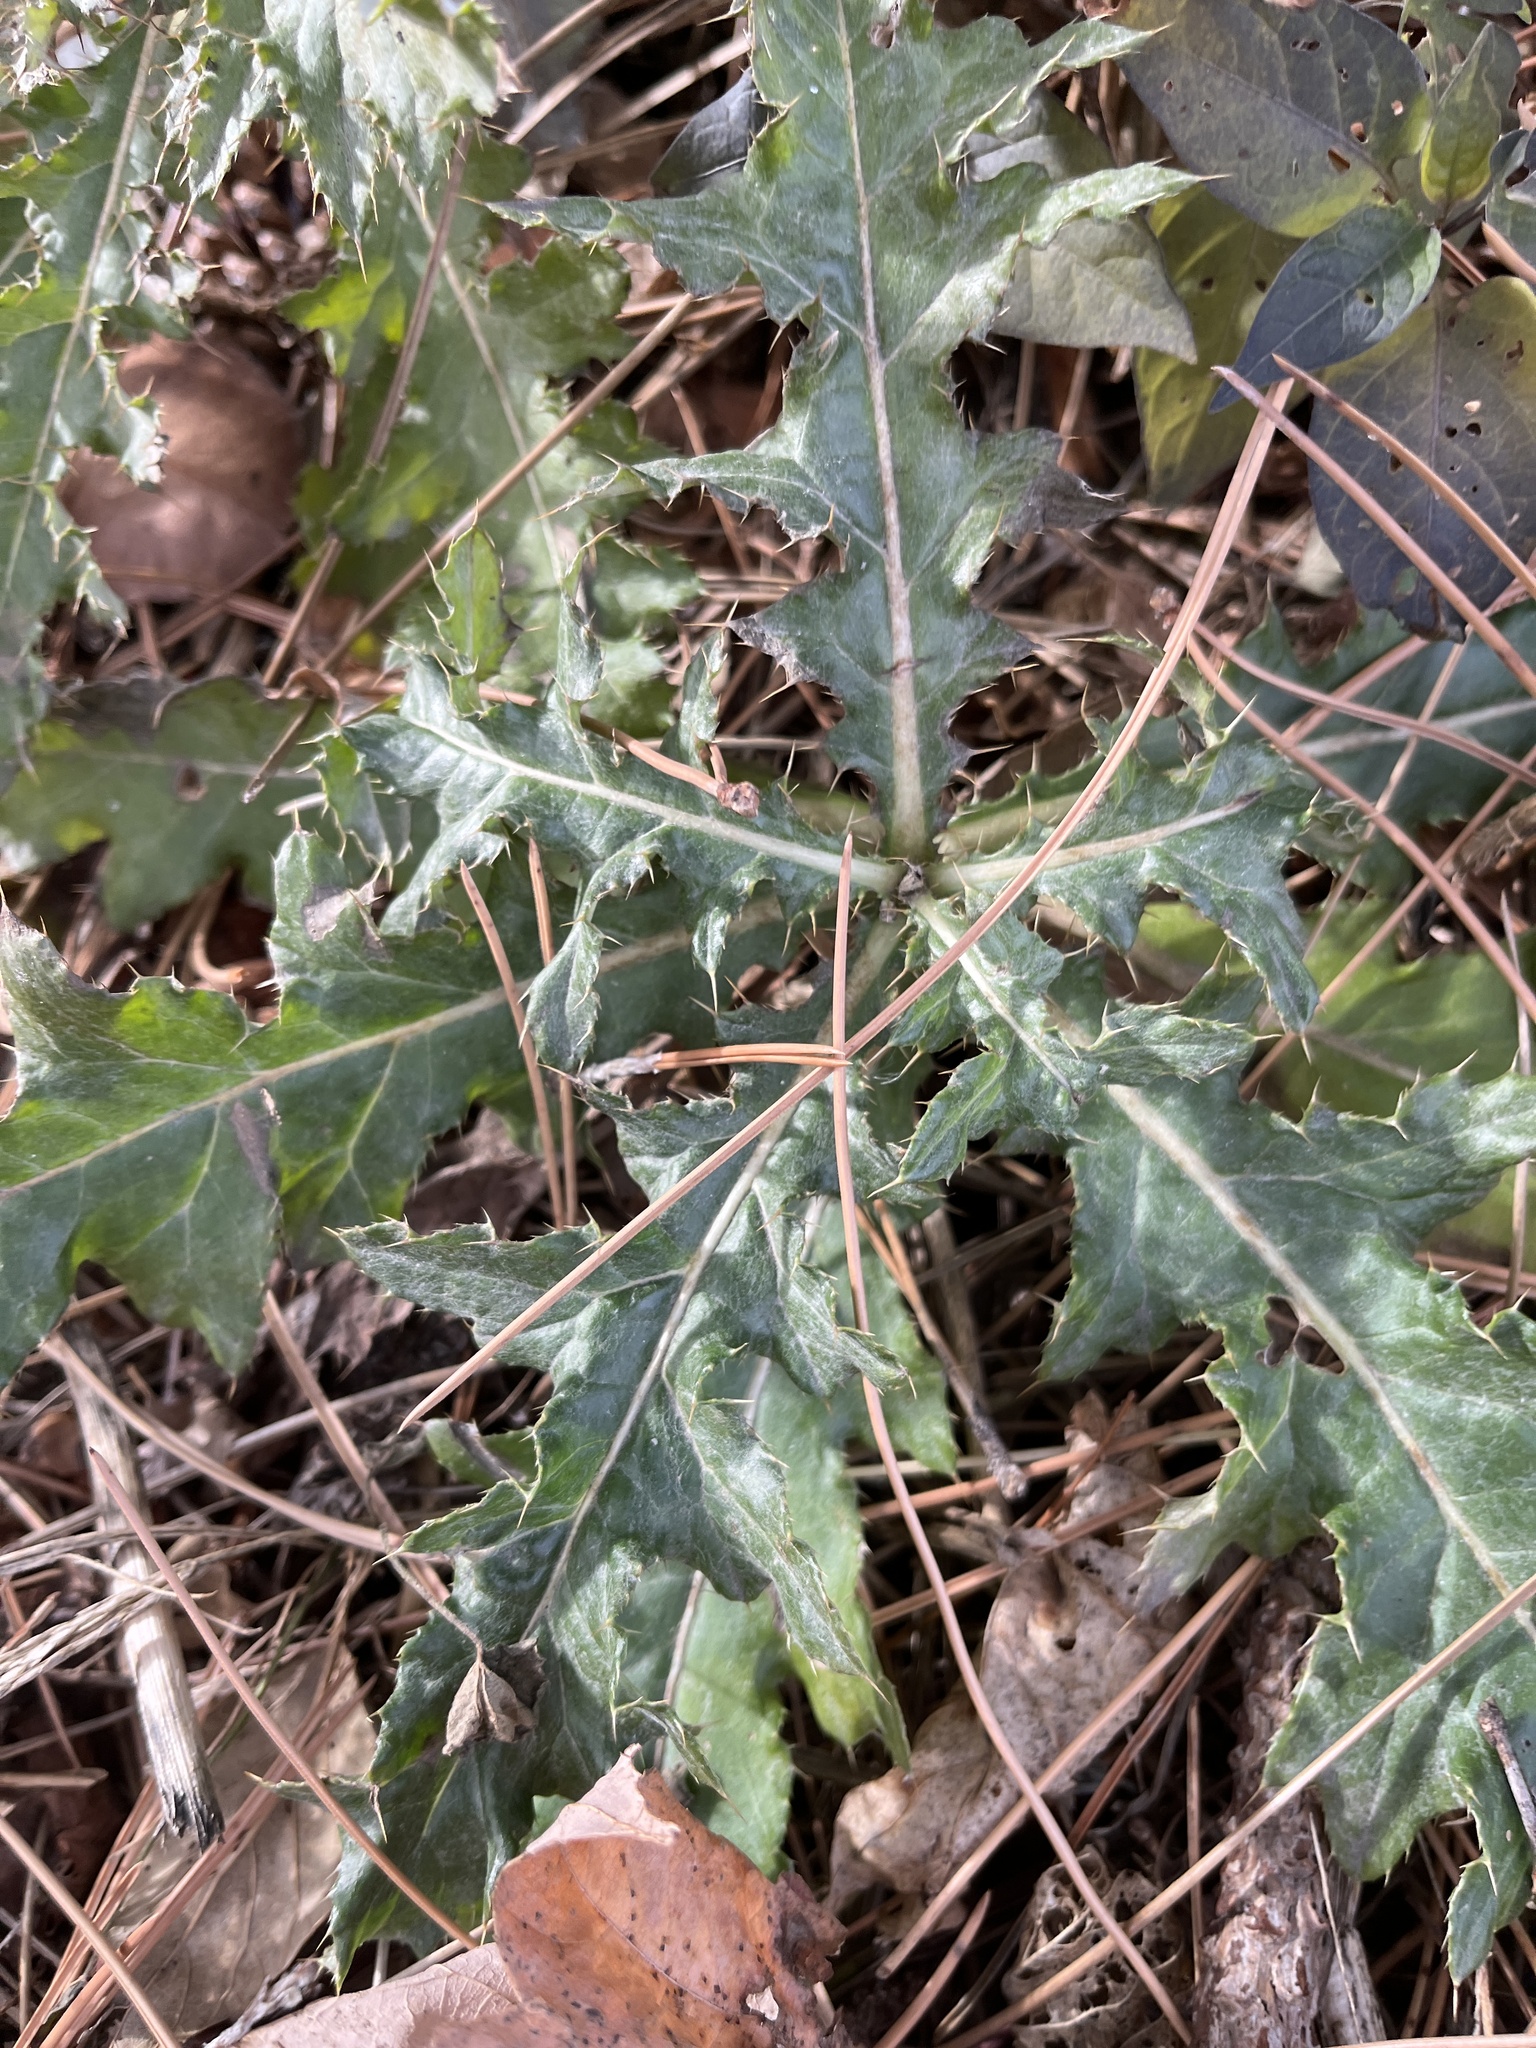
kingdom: Plantae
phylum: Tracheophyta
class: Magnoliopsida
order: Asterales
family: Asteraceae
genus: Cirsium
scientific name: Cirsium arvense
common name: Creeping thistle
